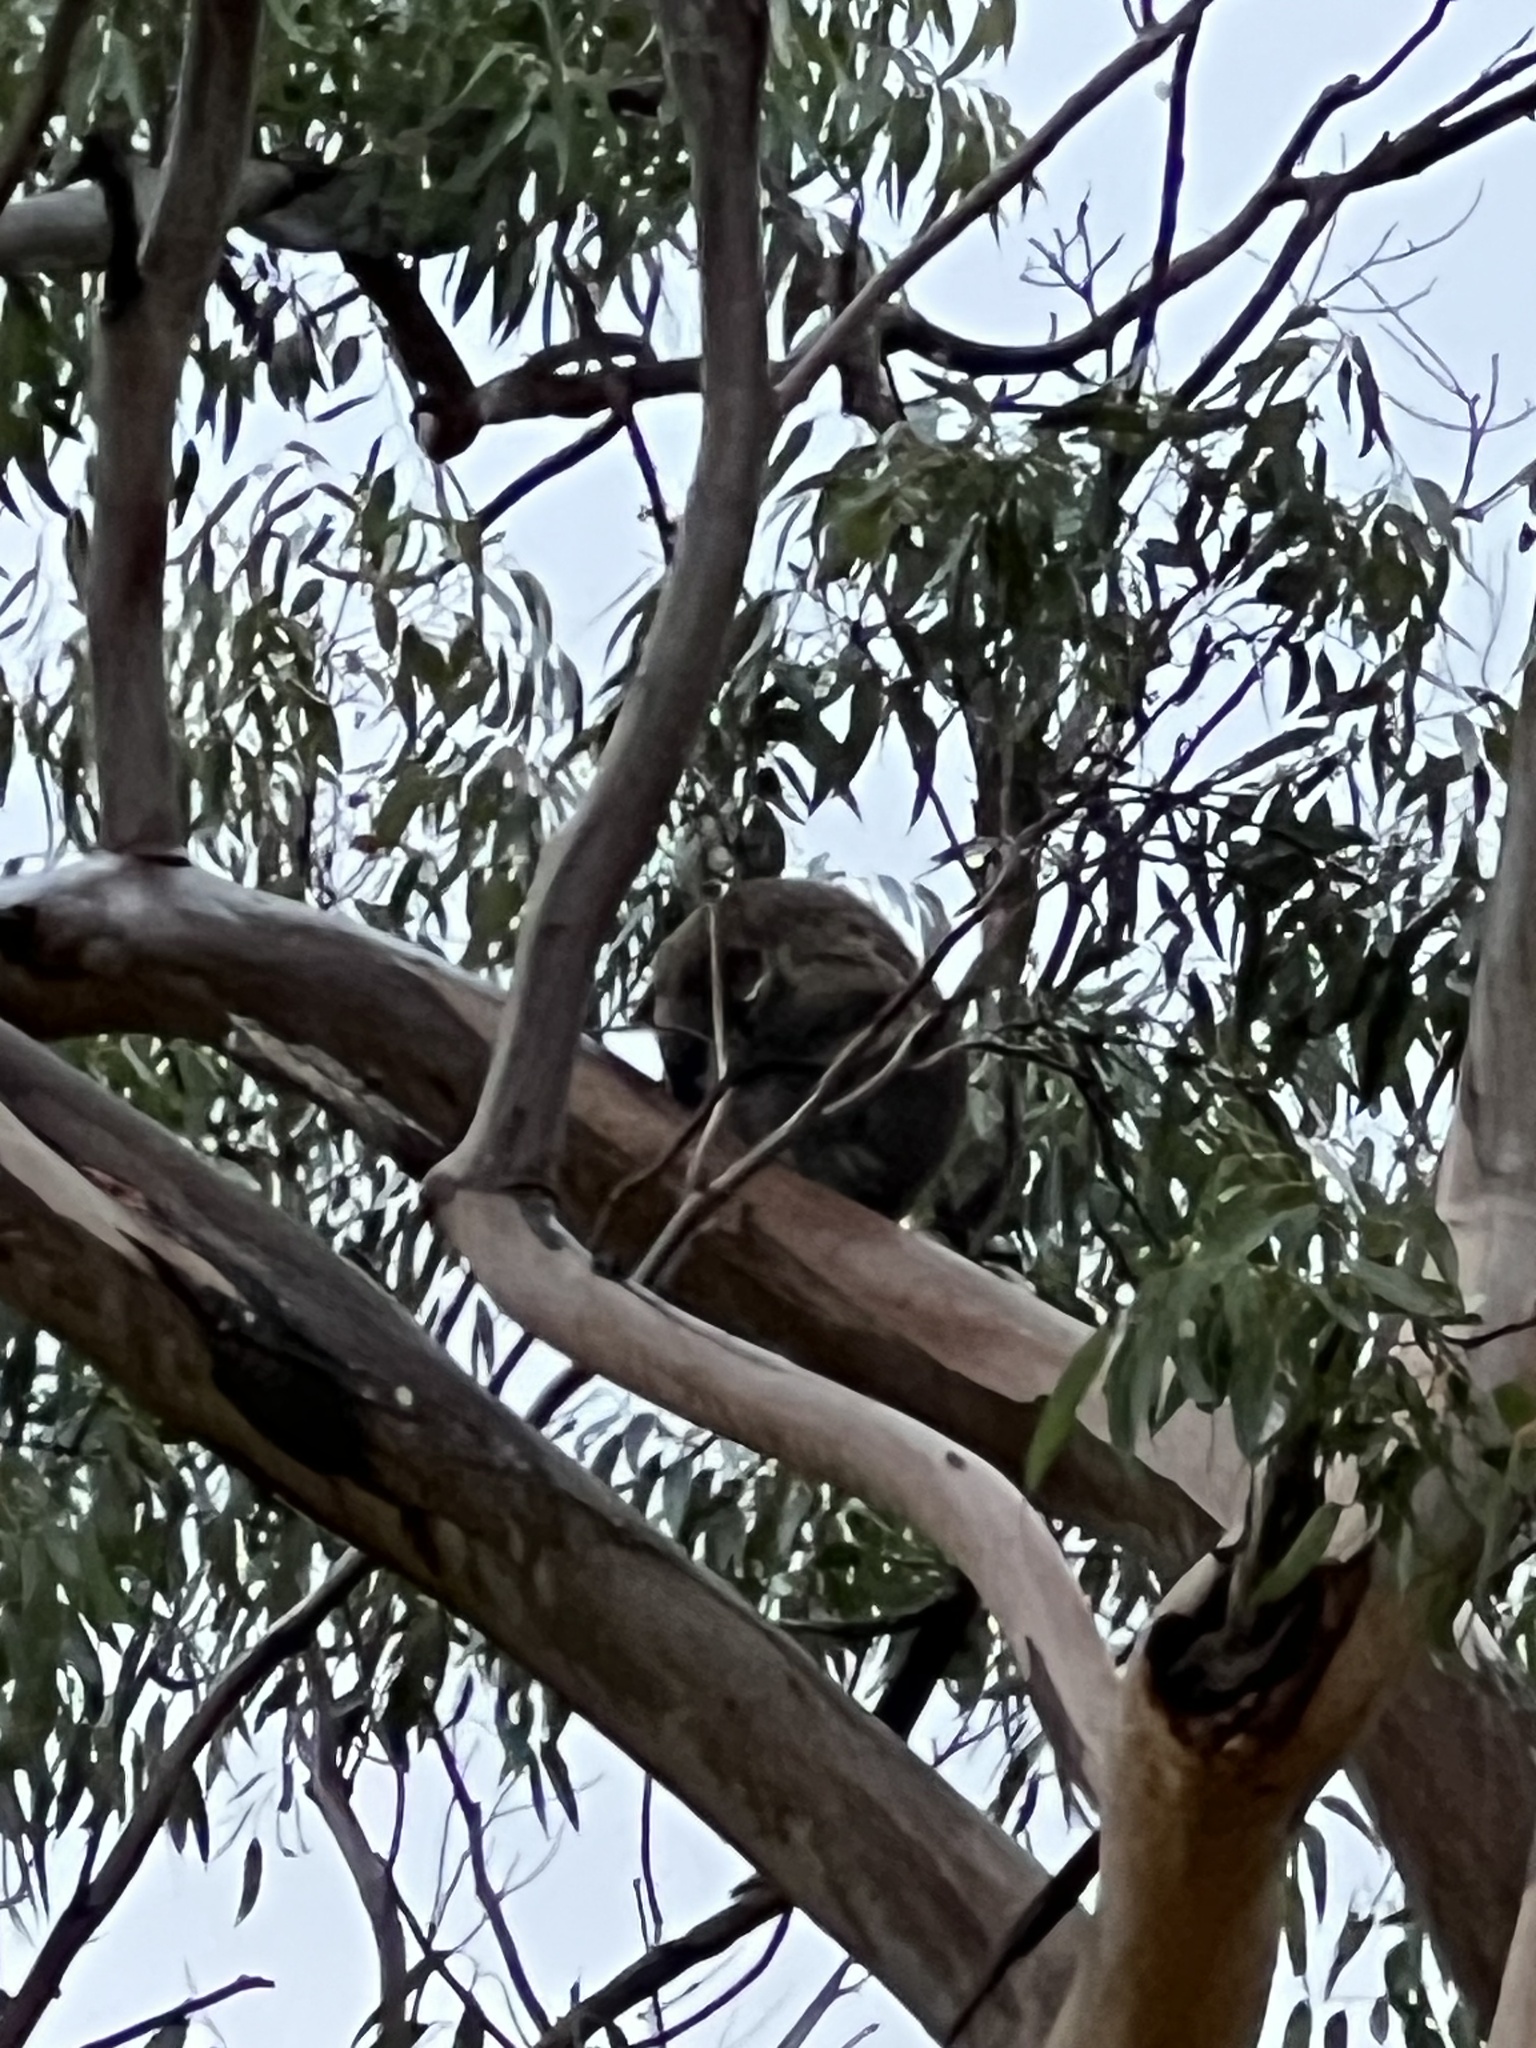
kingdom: Animalia
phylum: Chordata
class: Mammalia
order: Diprotodontia
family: Phascolarctidae
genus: Phascolarctos
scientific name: Phascolarctos cinereus
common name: Koala
